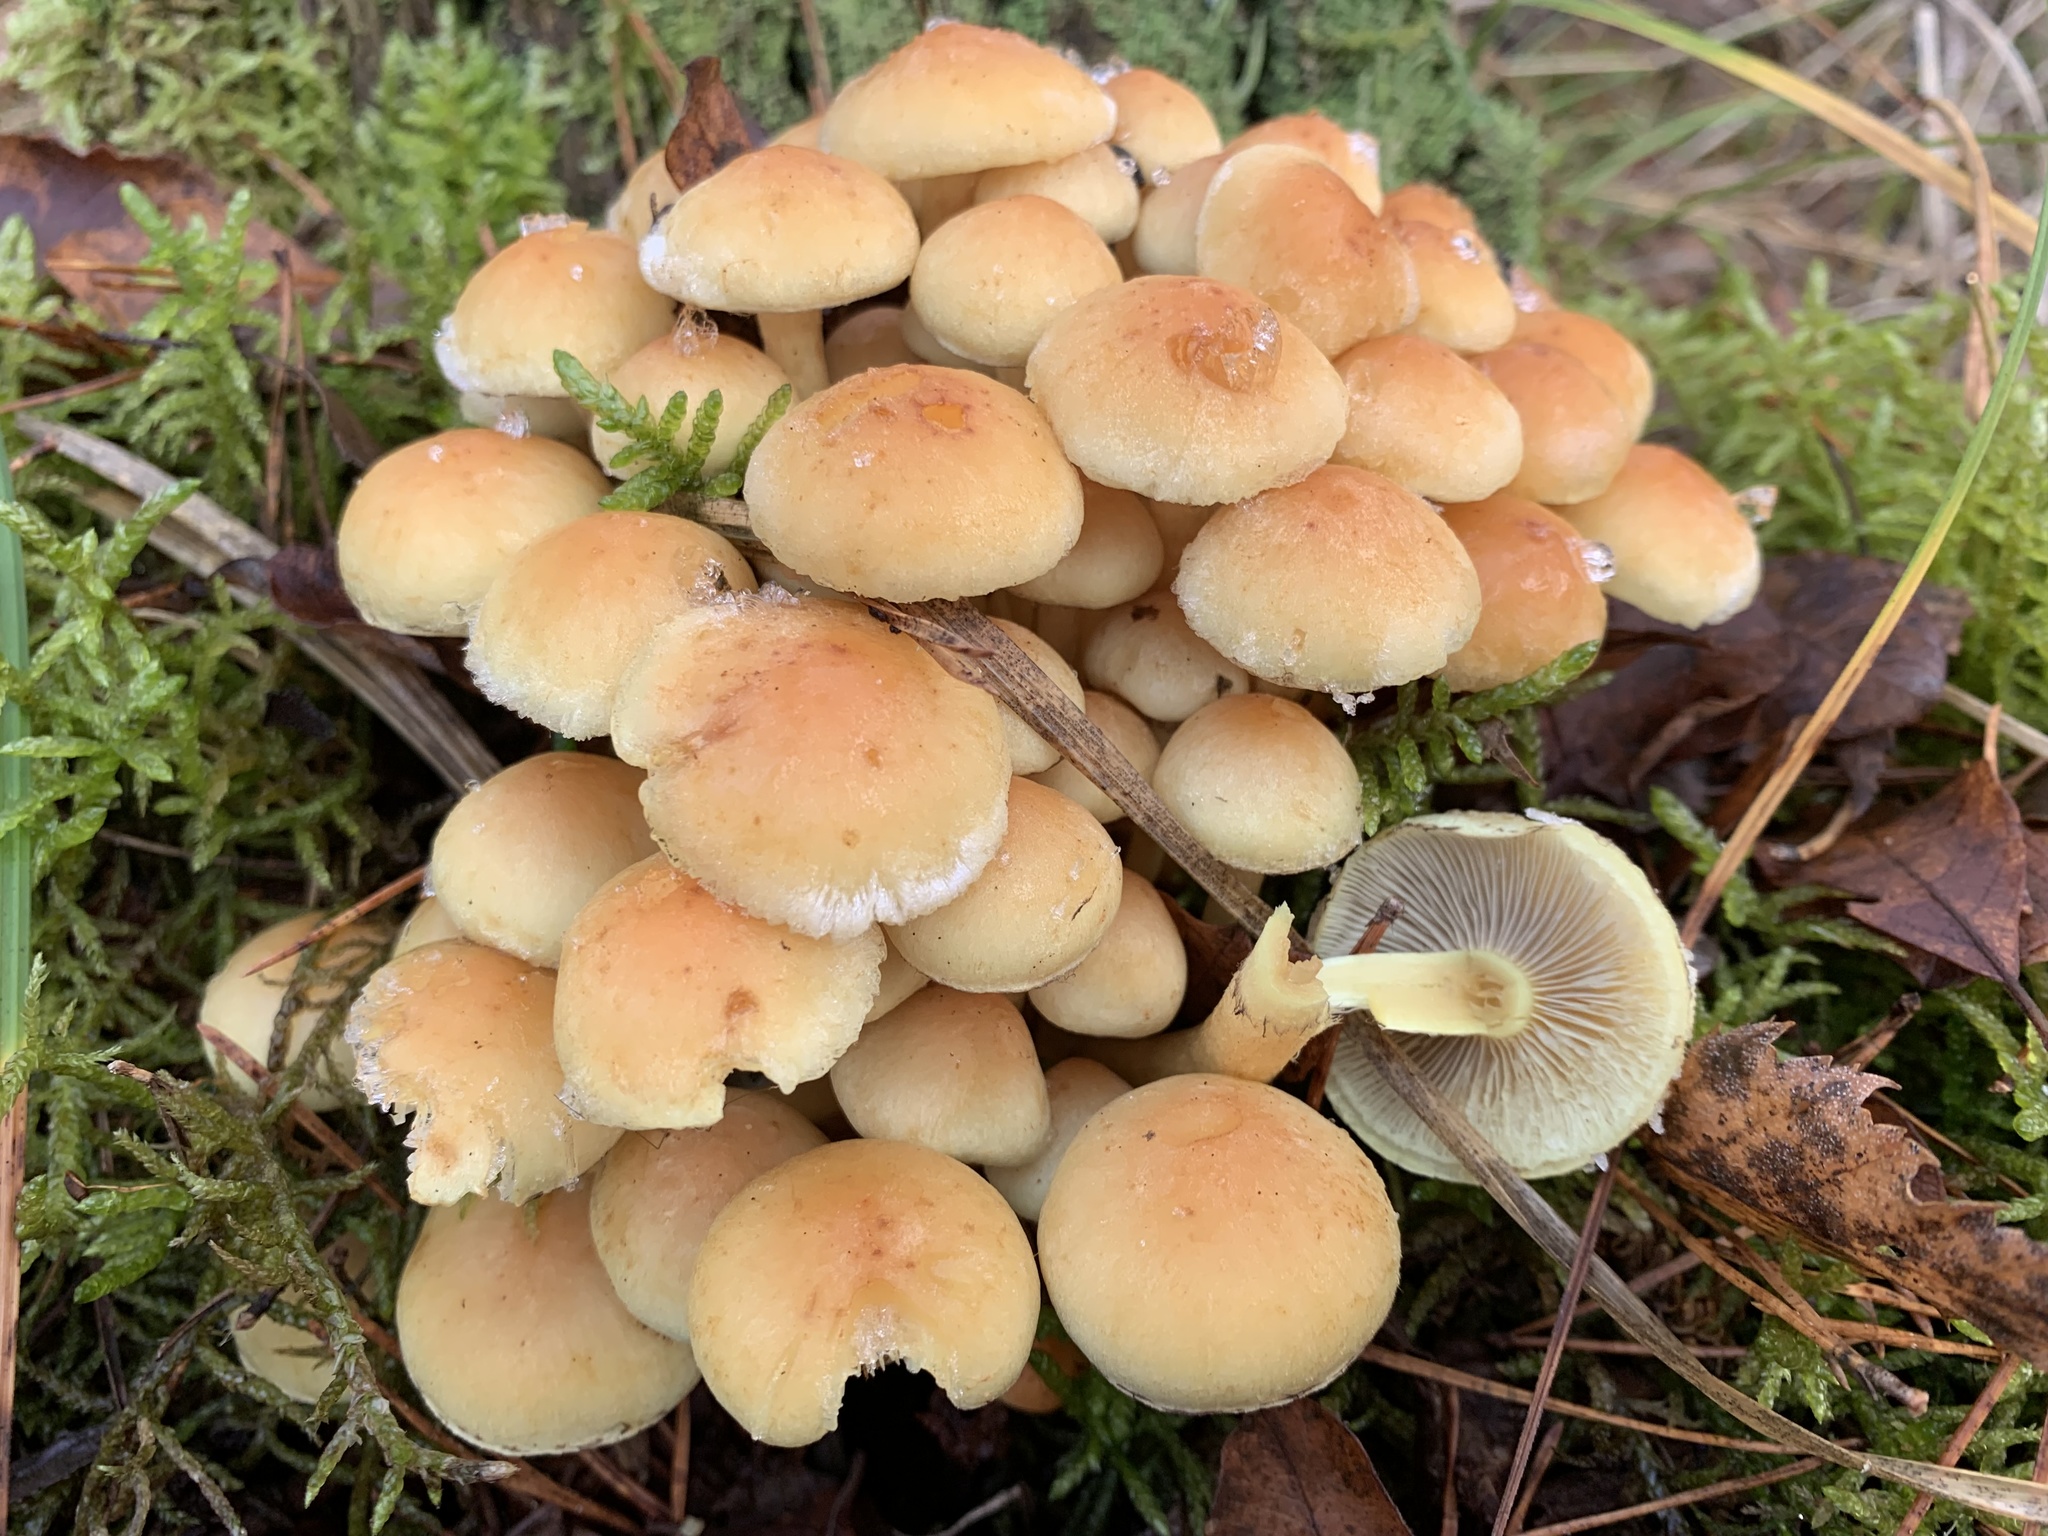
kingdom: Fungi
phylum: Basidiomycota
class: Agaricomycetes
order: Agaricales
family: Strophariaceae
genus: Hypholoma
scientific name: Hypholoma fasciculare
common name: Sulphur tuft
